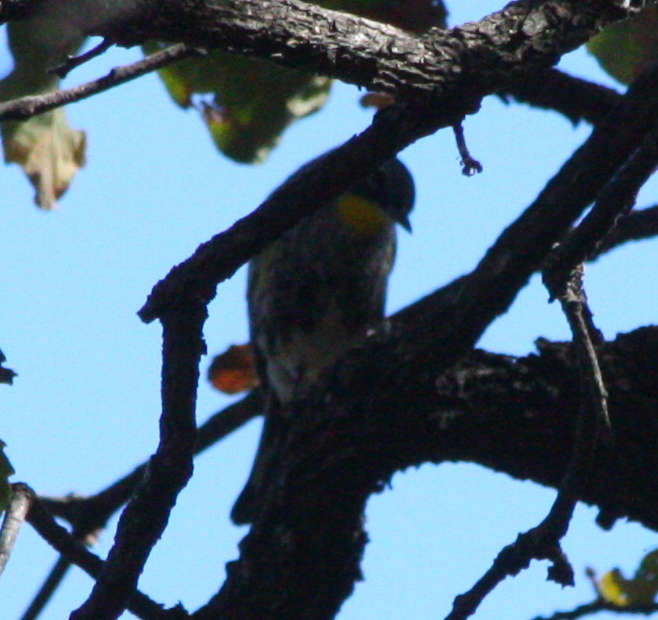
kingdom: Animalia
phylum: Chordata
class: Aves
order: Passeriformes
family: Parulidae
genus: Setophaga
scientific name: Setophaga auduboni
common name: Audubon's warbler
